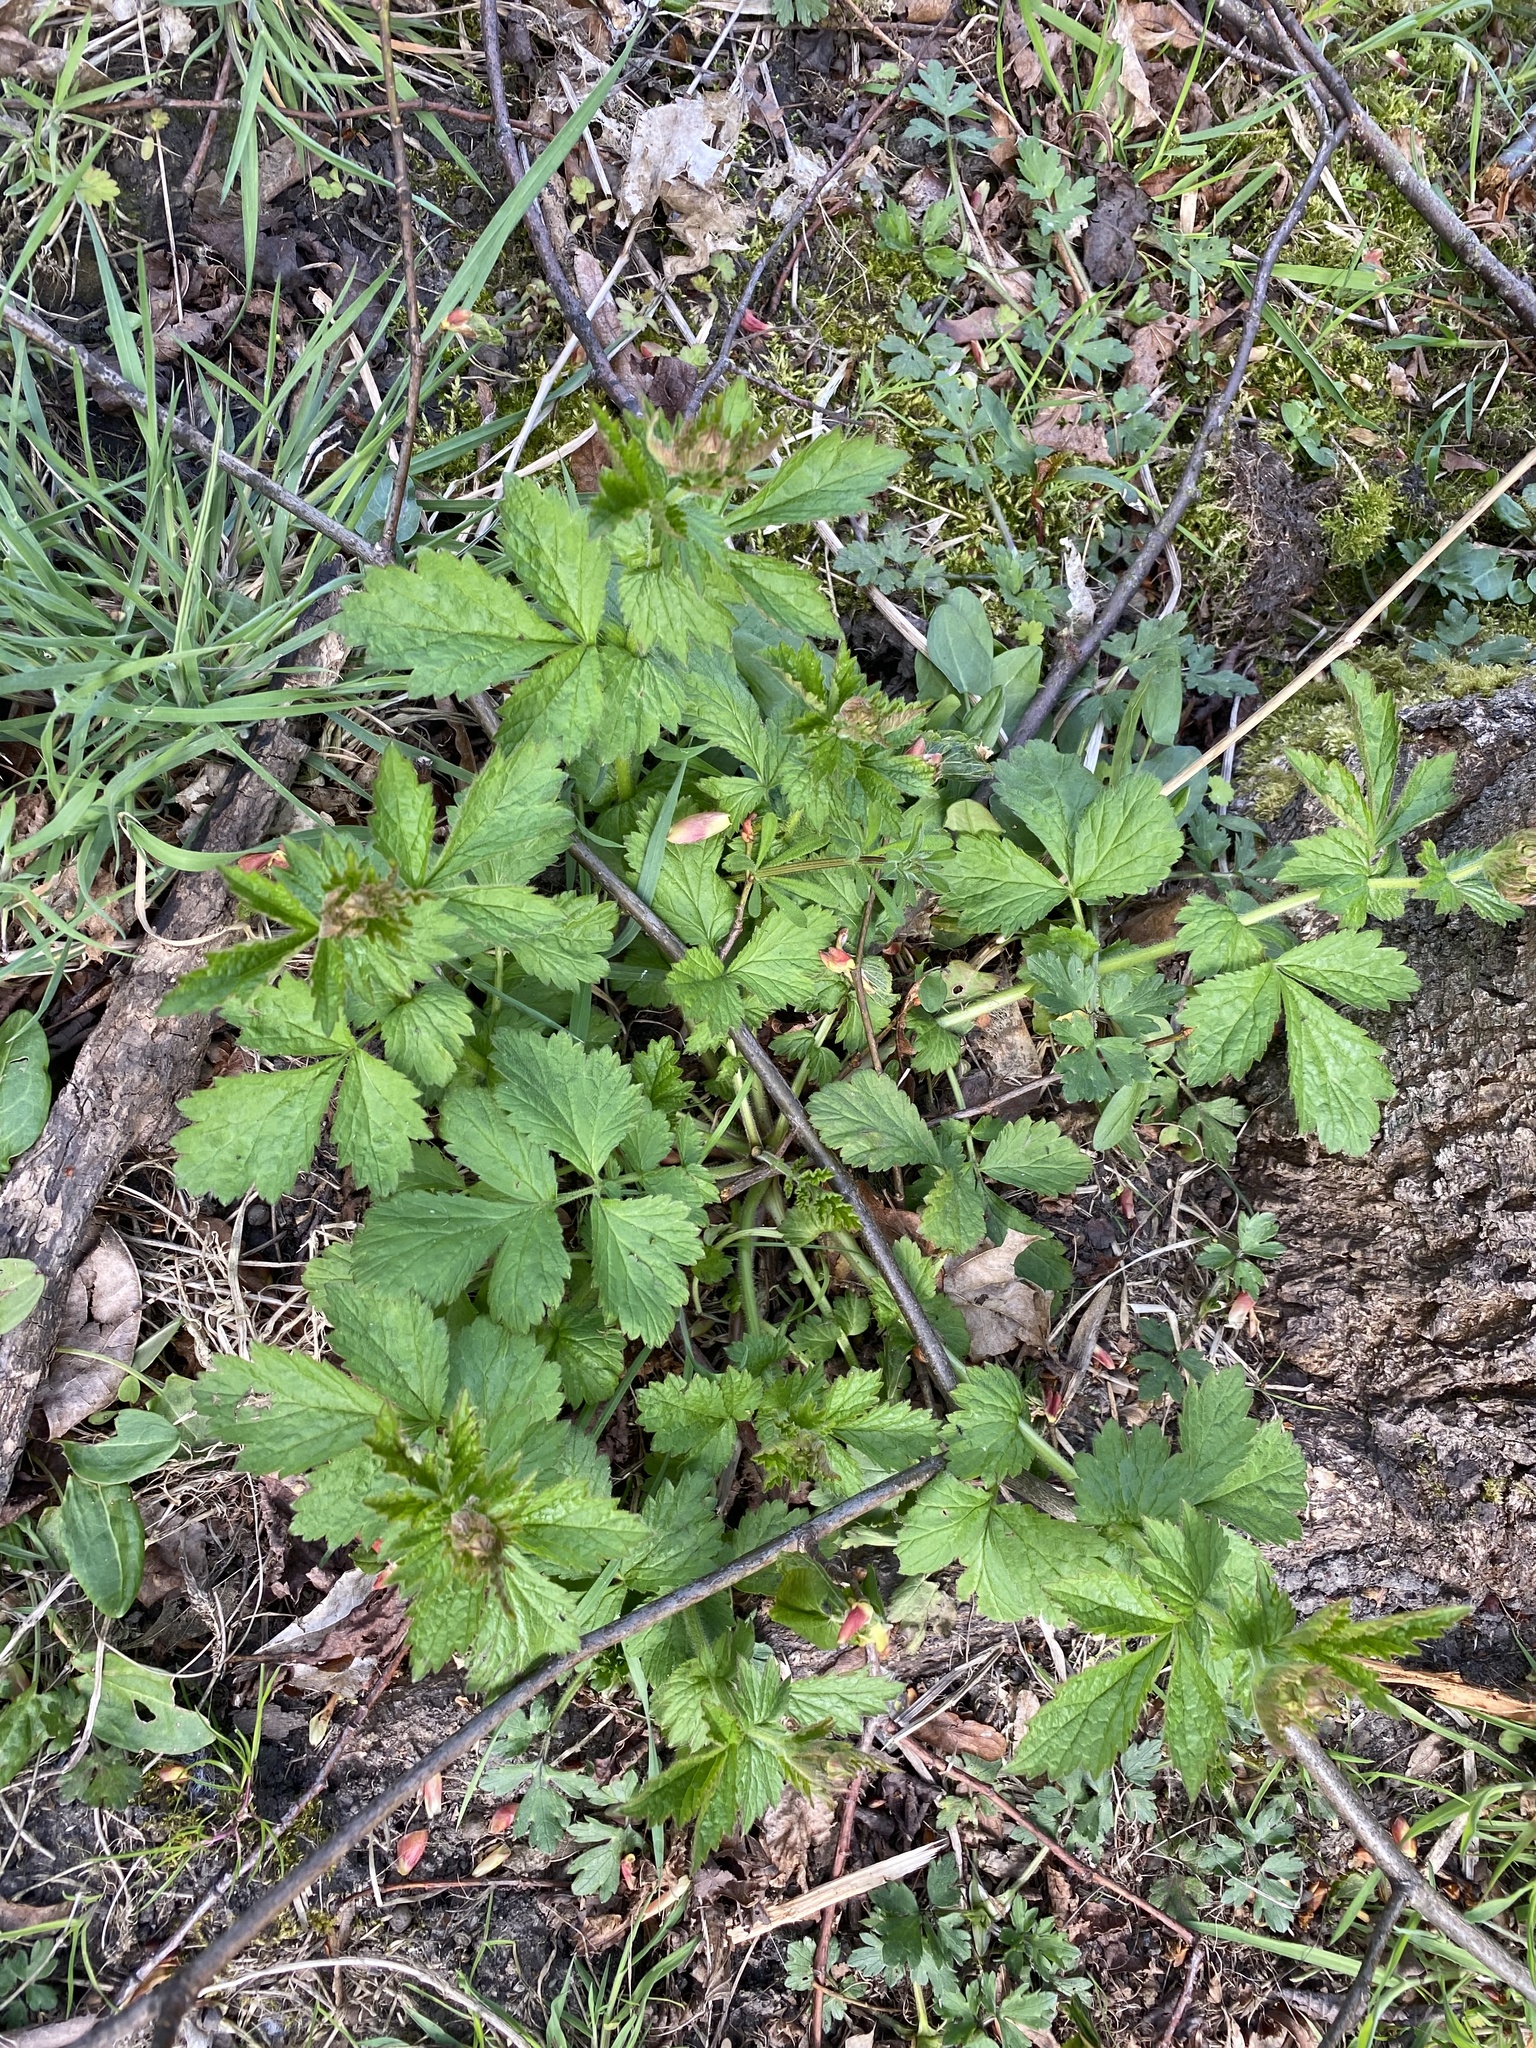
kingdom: Plantae
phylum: Tracheophyta
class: Magnoliopsida
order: Rosales
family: Rosaceae
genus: Geum
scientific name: Geum urbanum
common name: Wood avens
